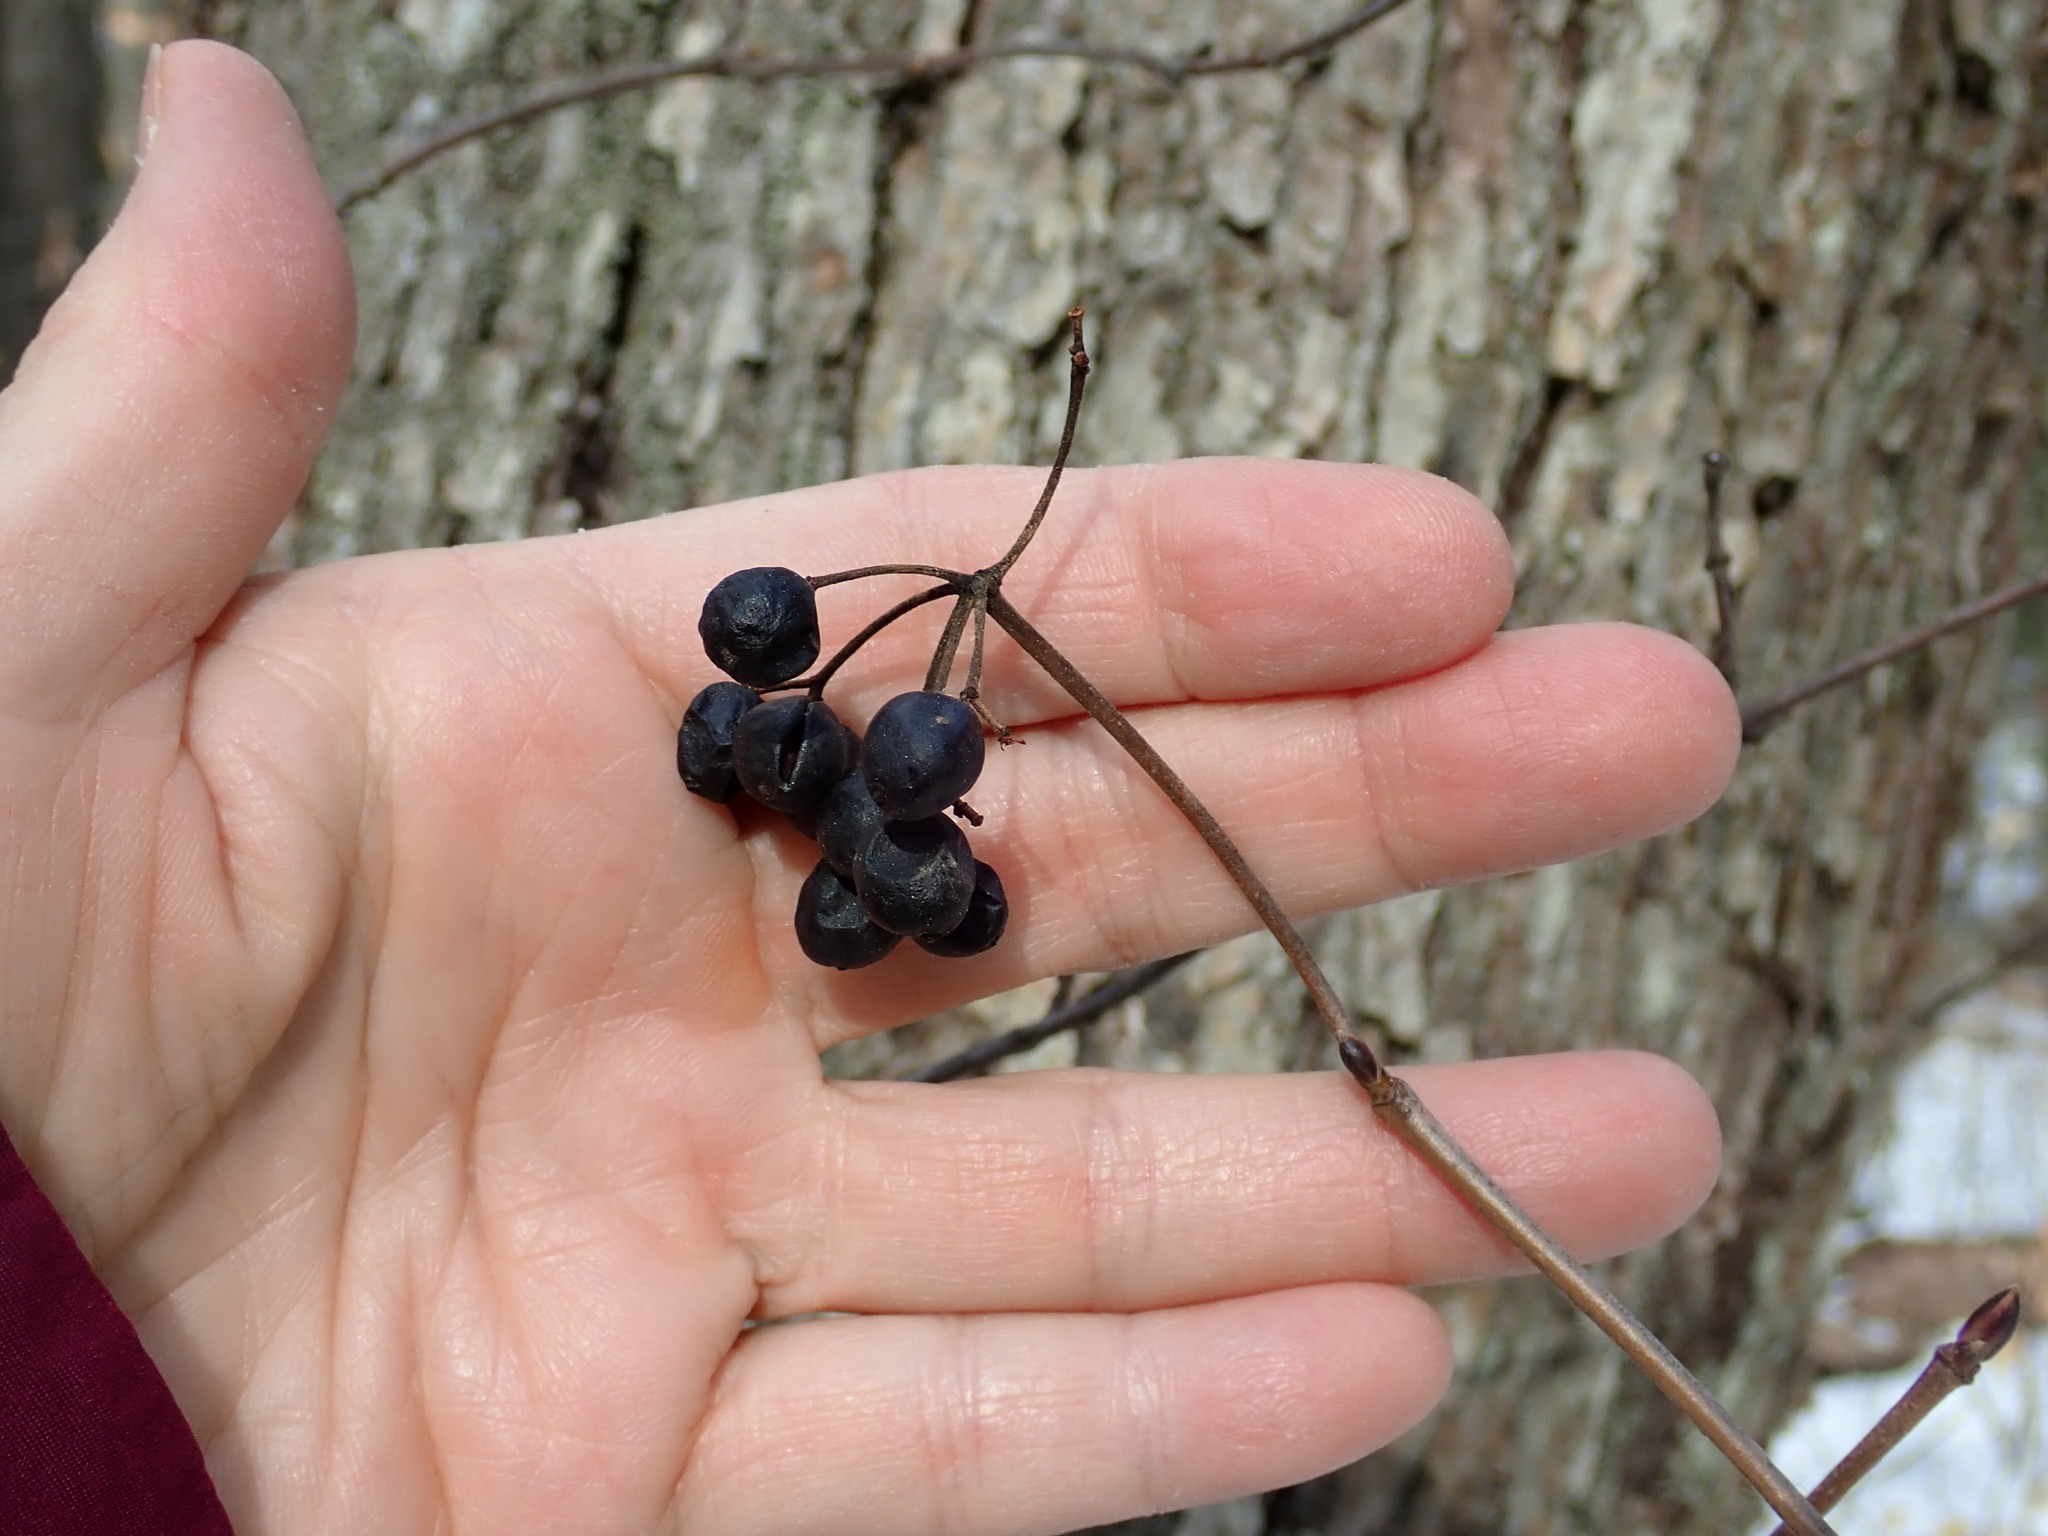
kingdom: Plantae
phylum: Tracheophyta
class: Magnoliopsida
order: Dipsacales
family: Viburnaceae
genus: Viburnum
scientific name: Viburnum acerifolium
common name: Dockmackie
